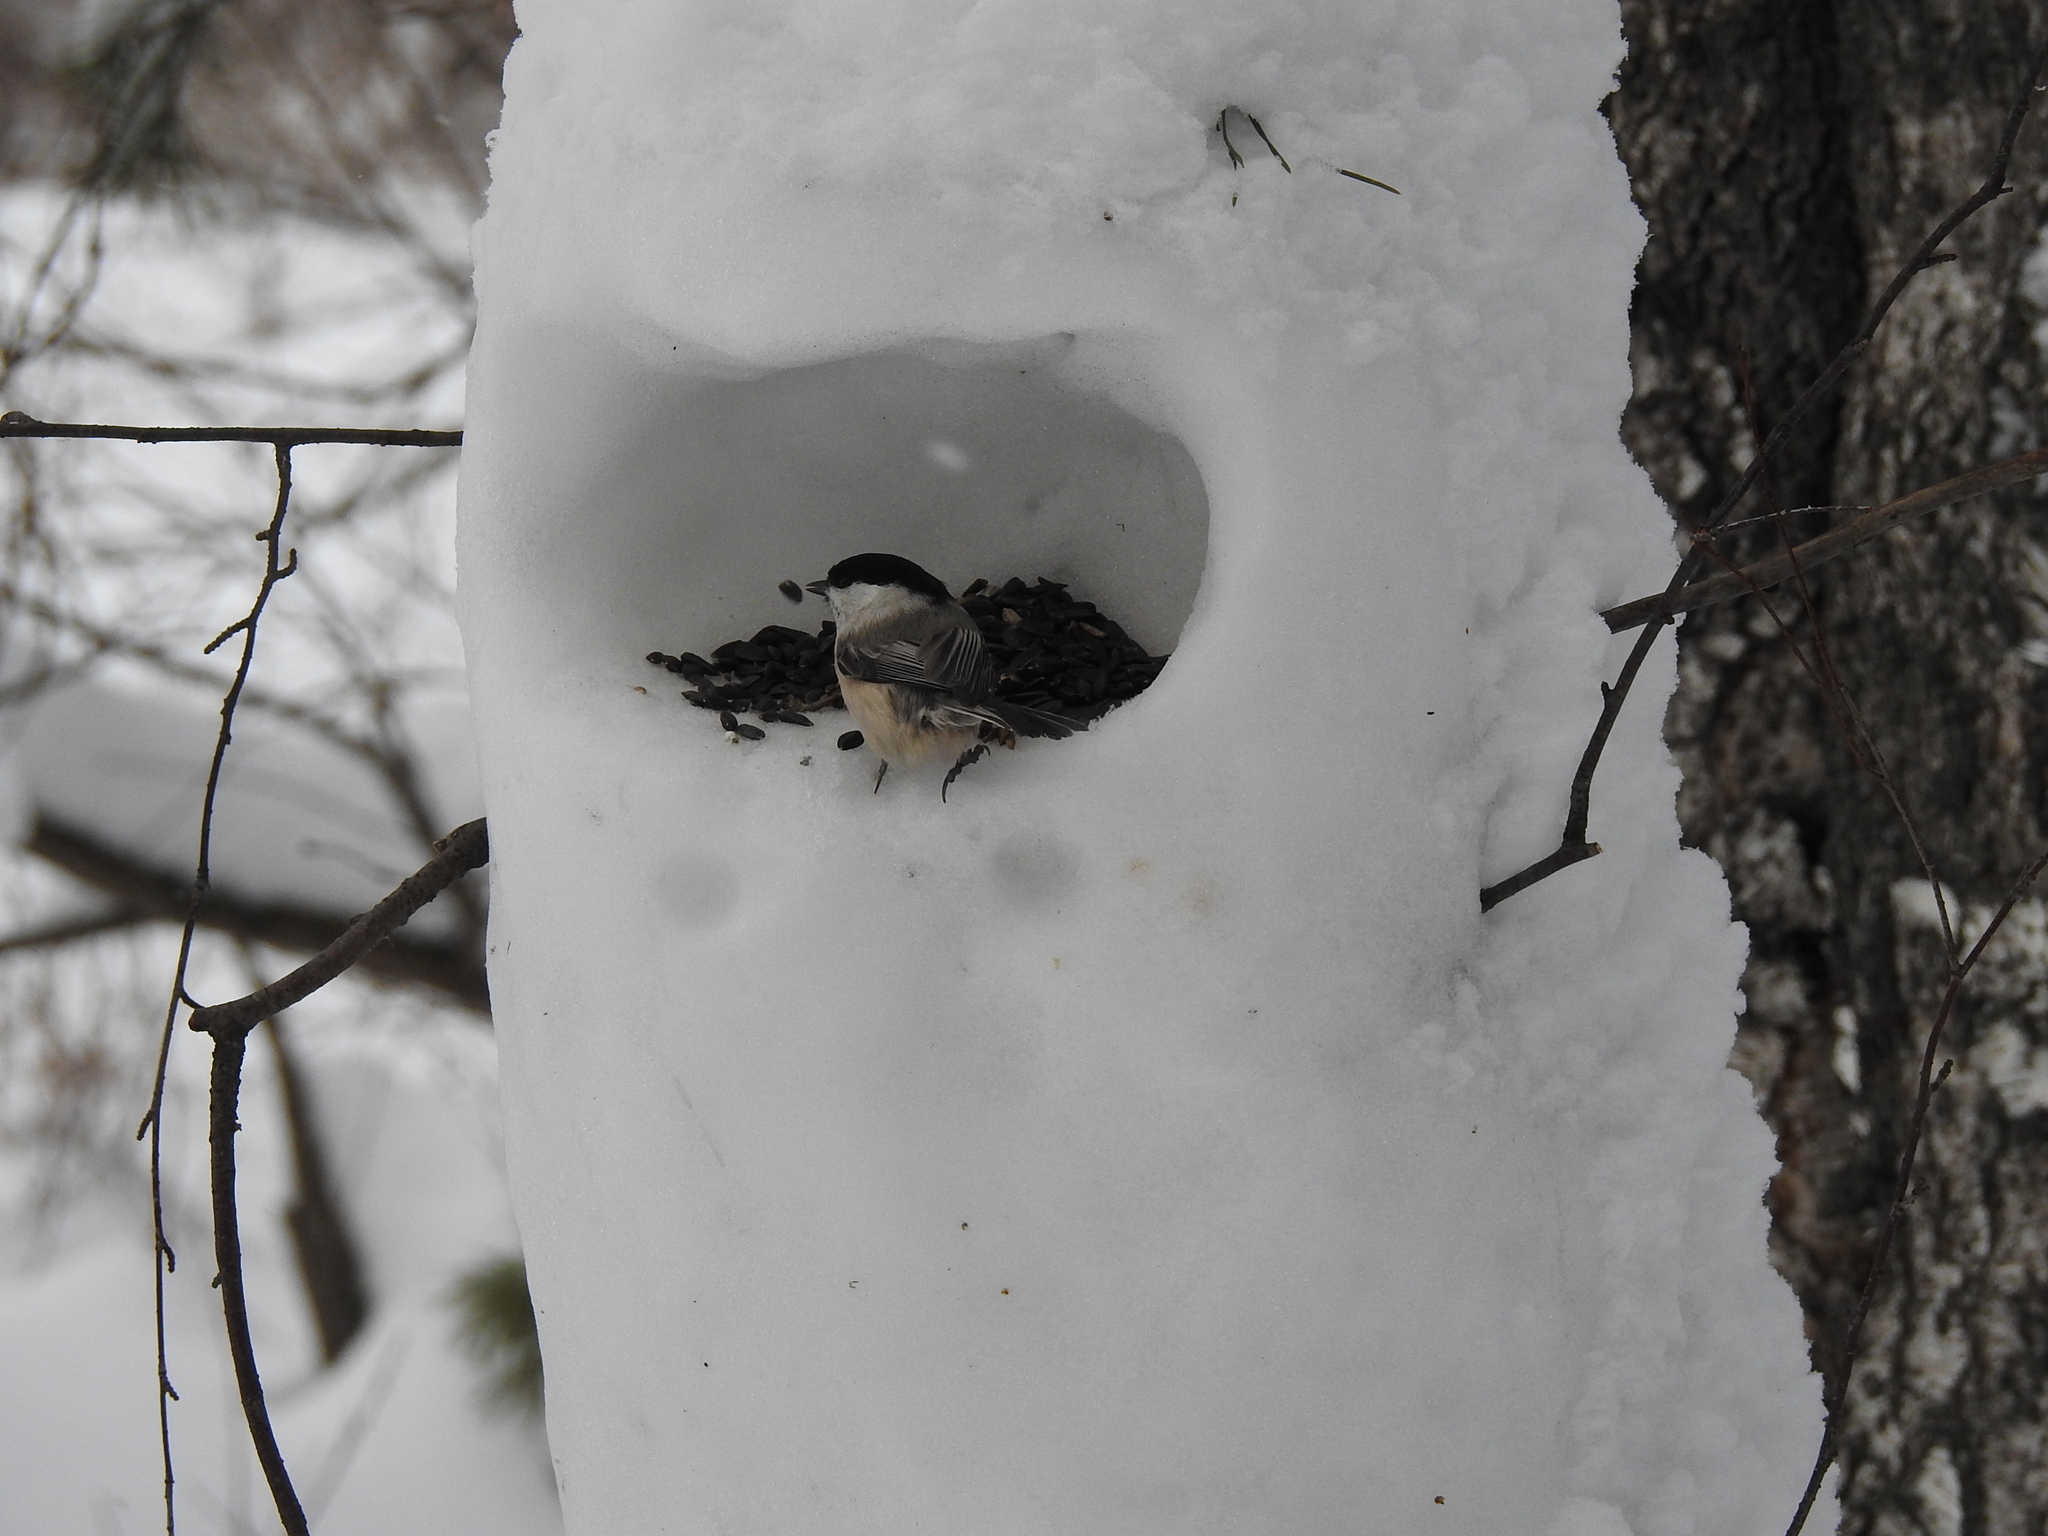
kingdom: Animalia
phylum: Chordata
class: Aves
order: Passeriformes
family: Paridae
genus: Poecile
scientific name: Poecile montanus
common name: Willow tit
